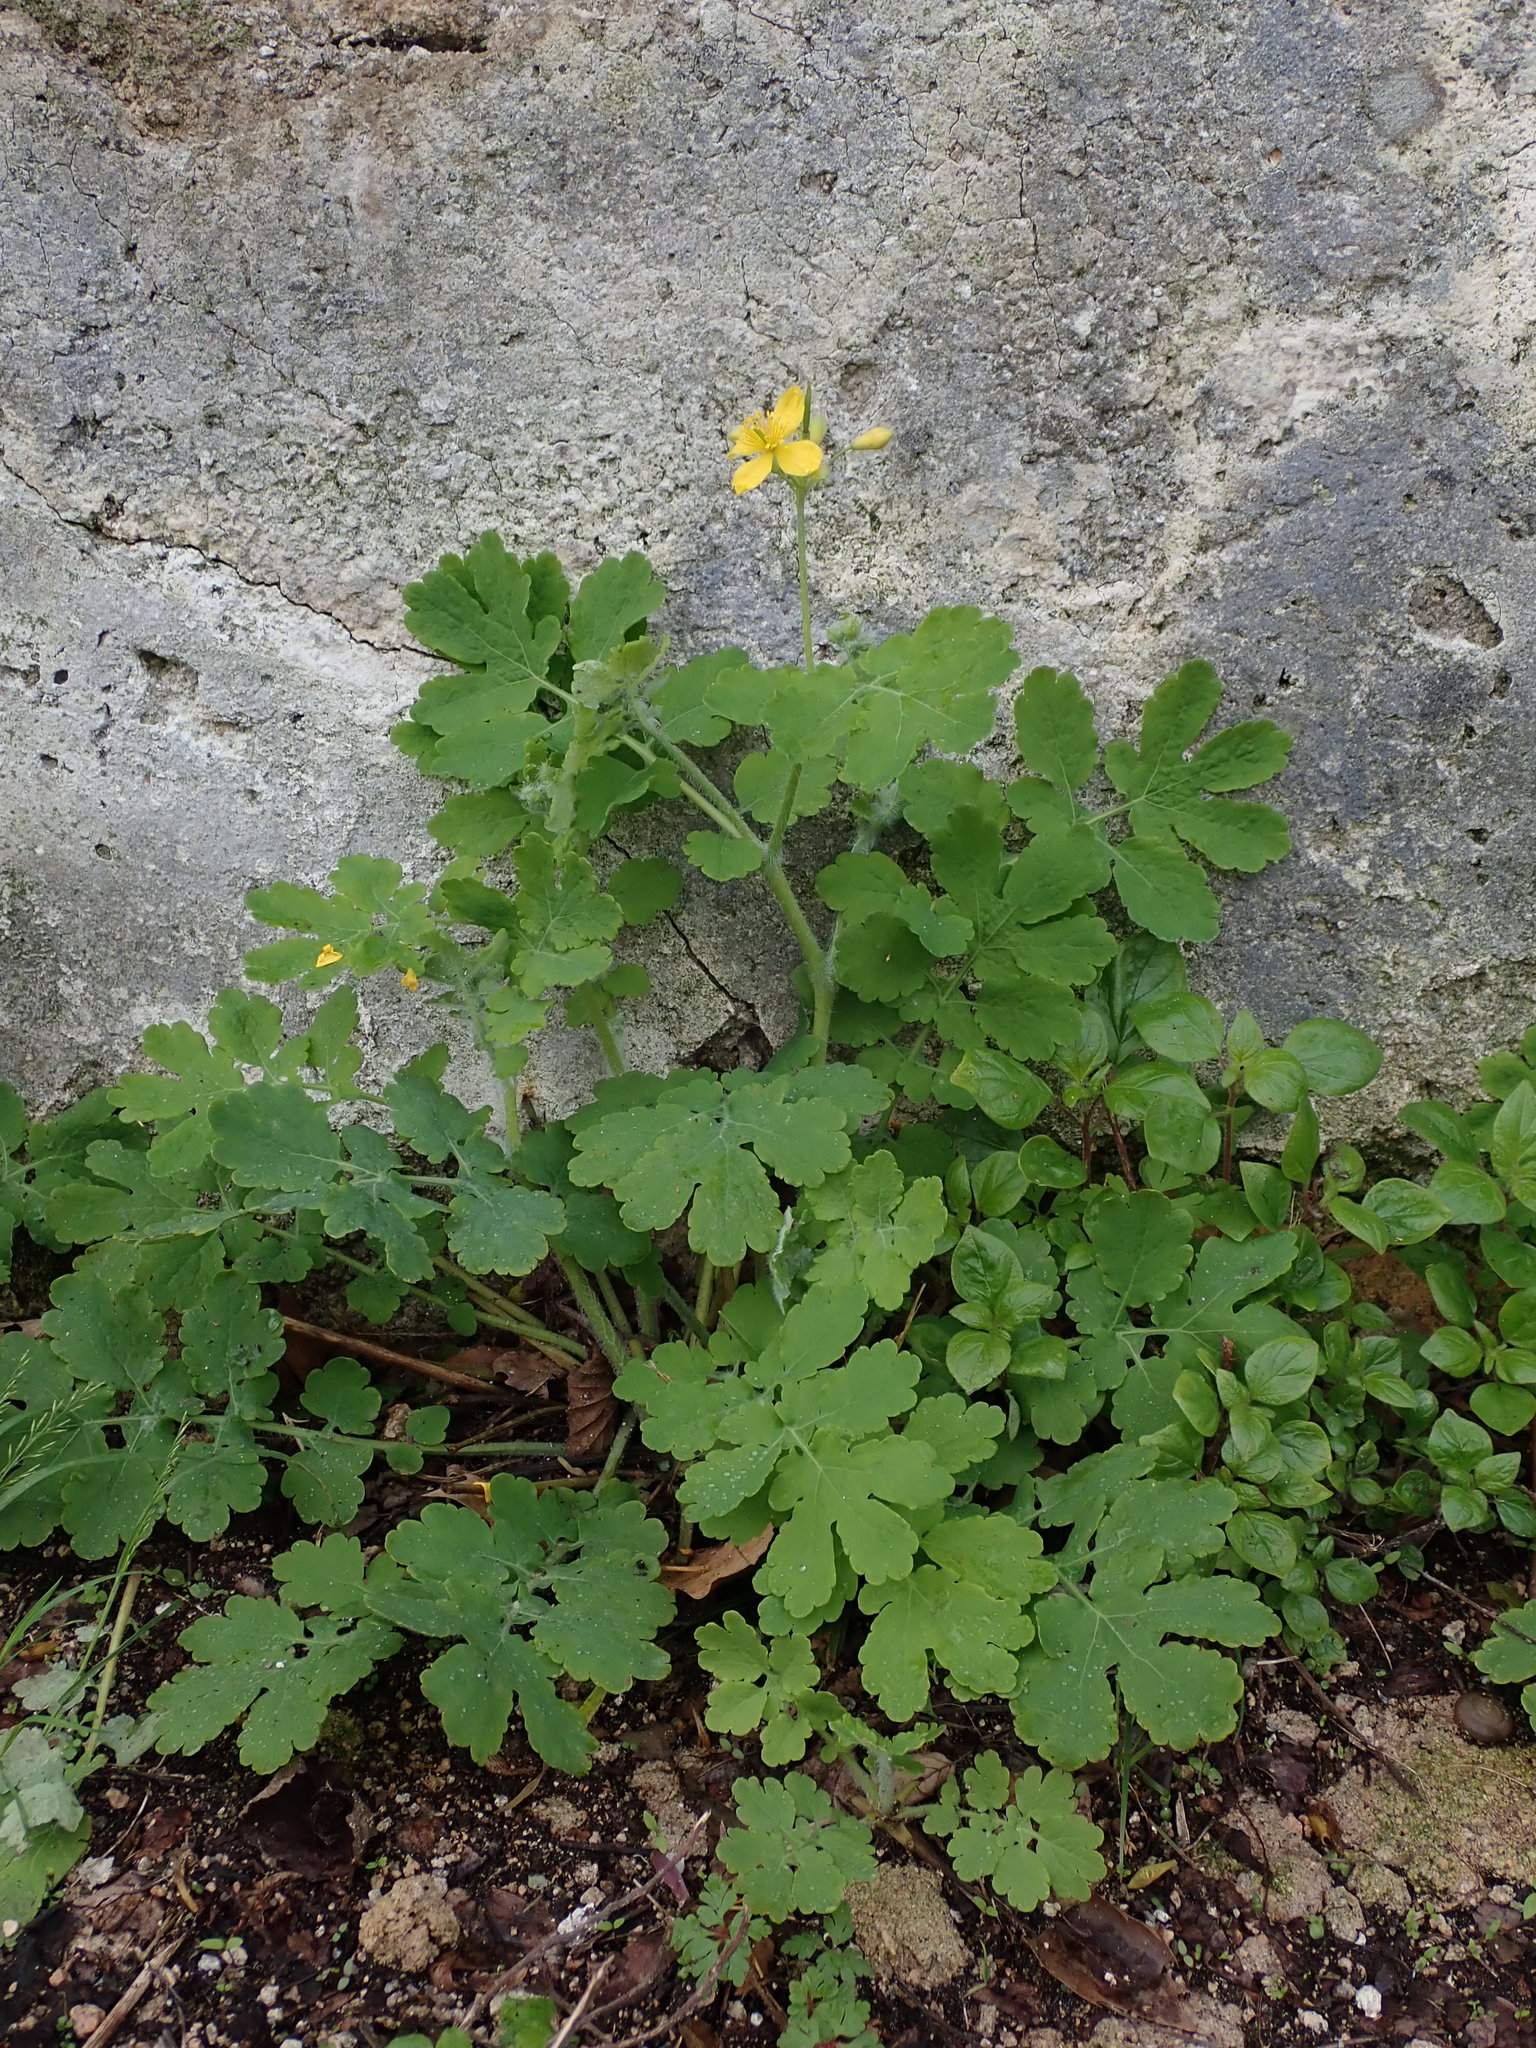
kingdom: Plantae
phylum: Tracheophyta
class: Magnoliopsida
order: Ranunculales
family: Papaveraceae
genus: Chelidonium
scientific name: Chelidonium majus
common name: Greater celandine
